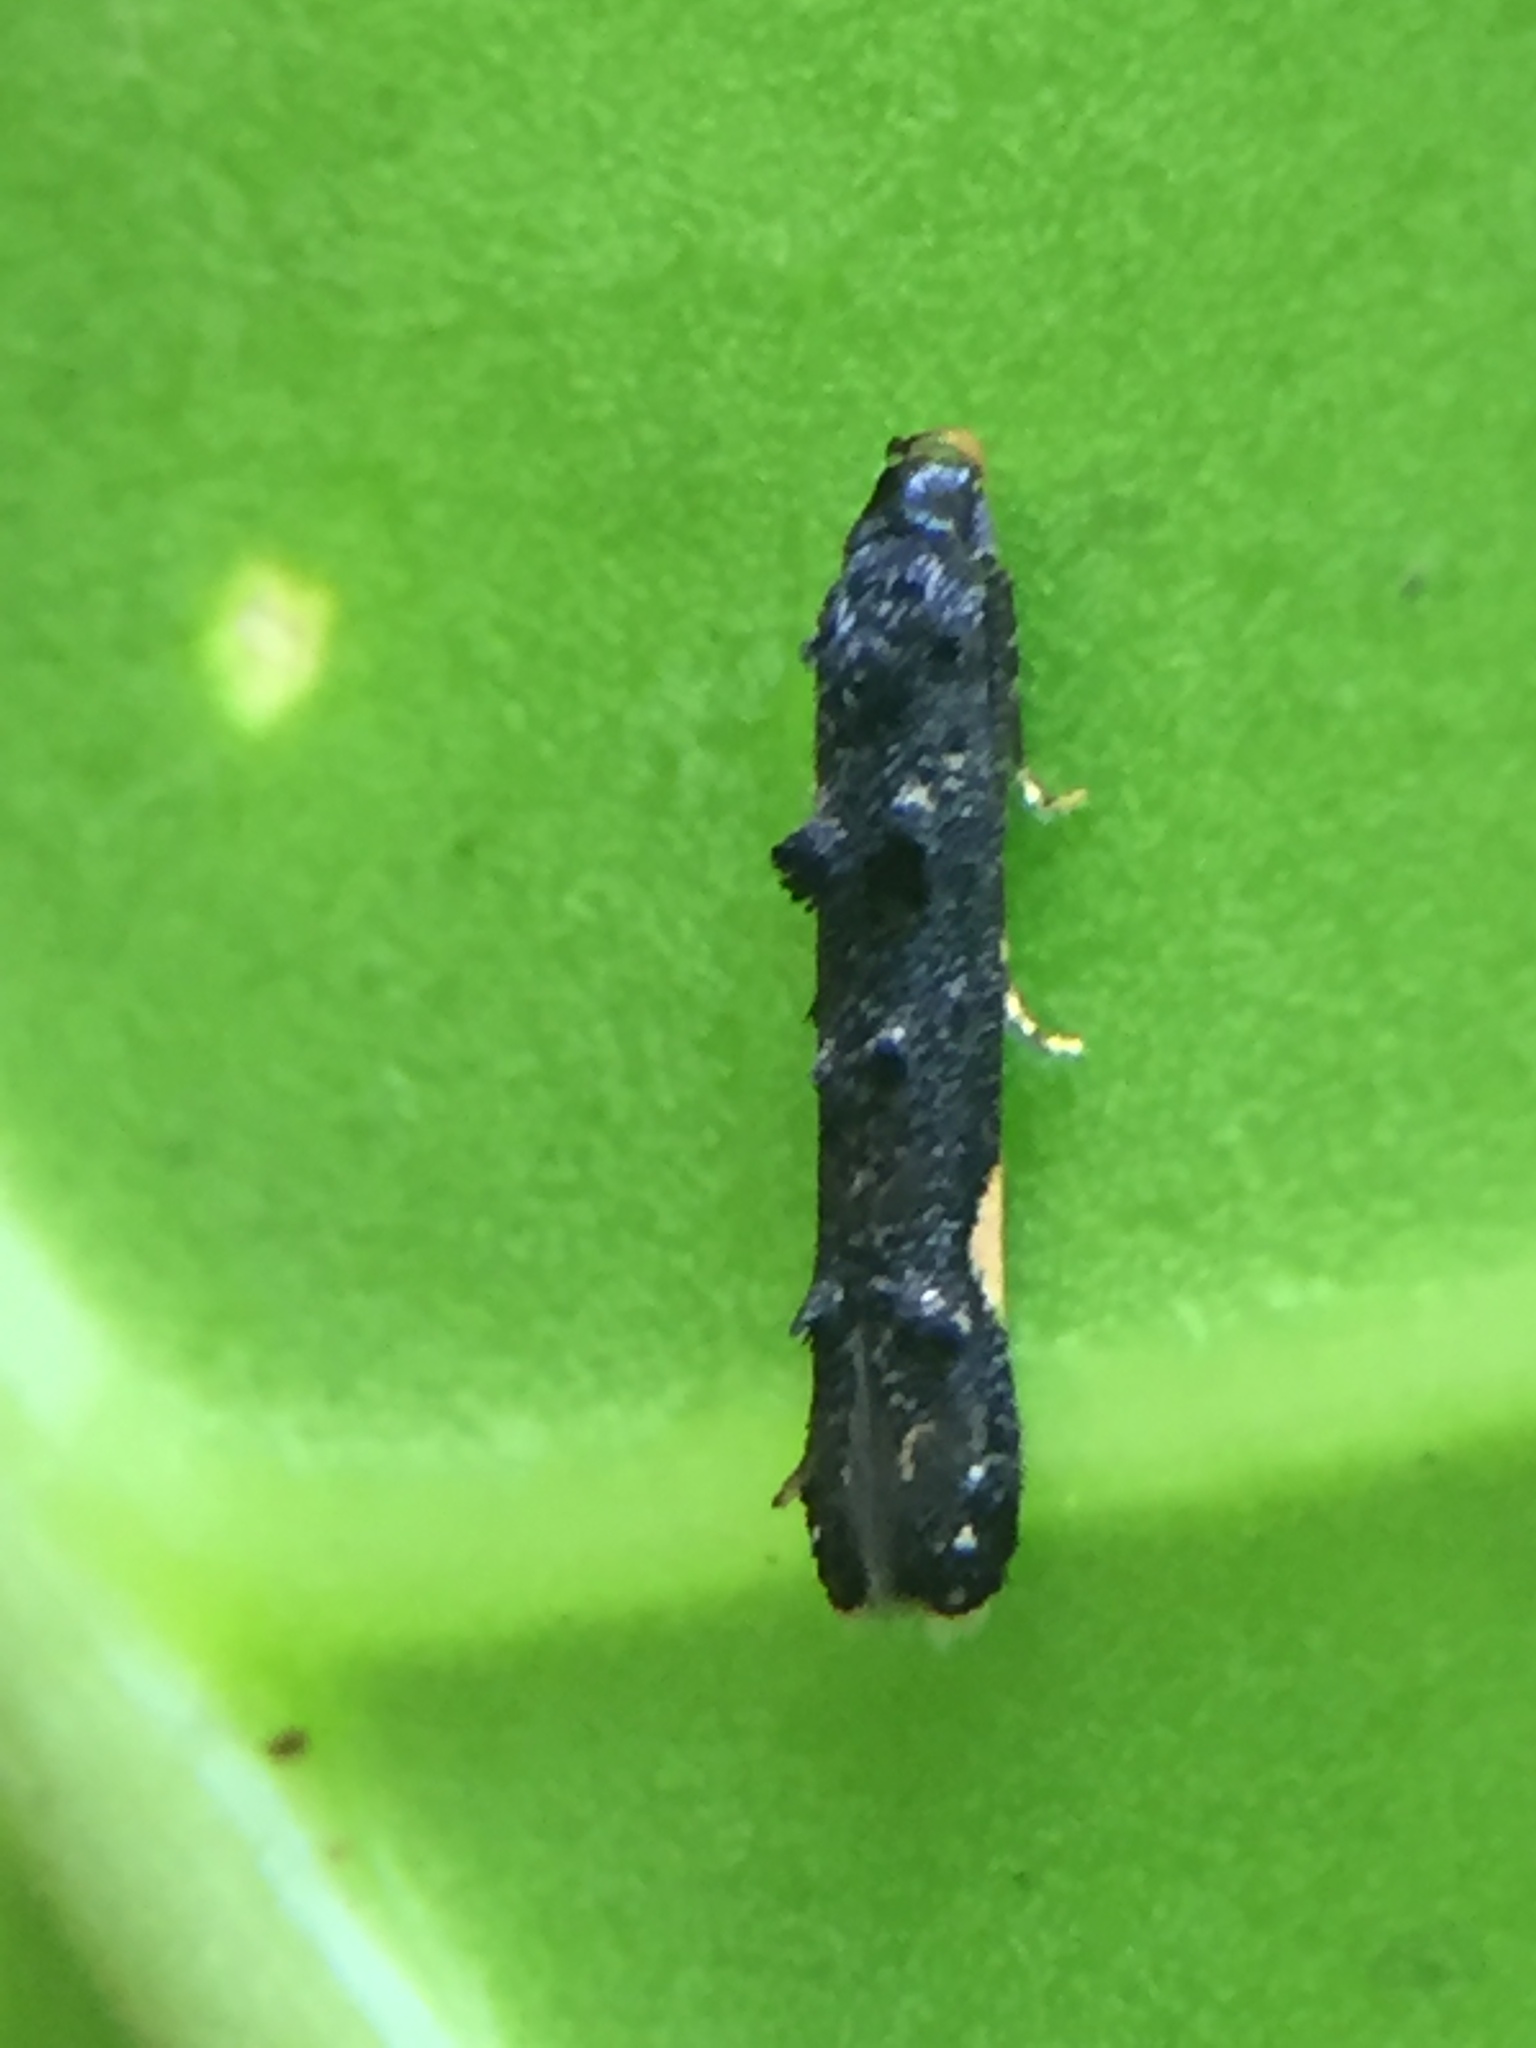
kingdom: Animalia
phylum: Arthropoda
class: Insecta
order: Lepidoptera
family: Elachistidae
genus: Microcolona
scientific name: Microcolona
